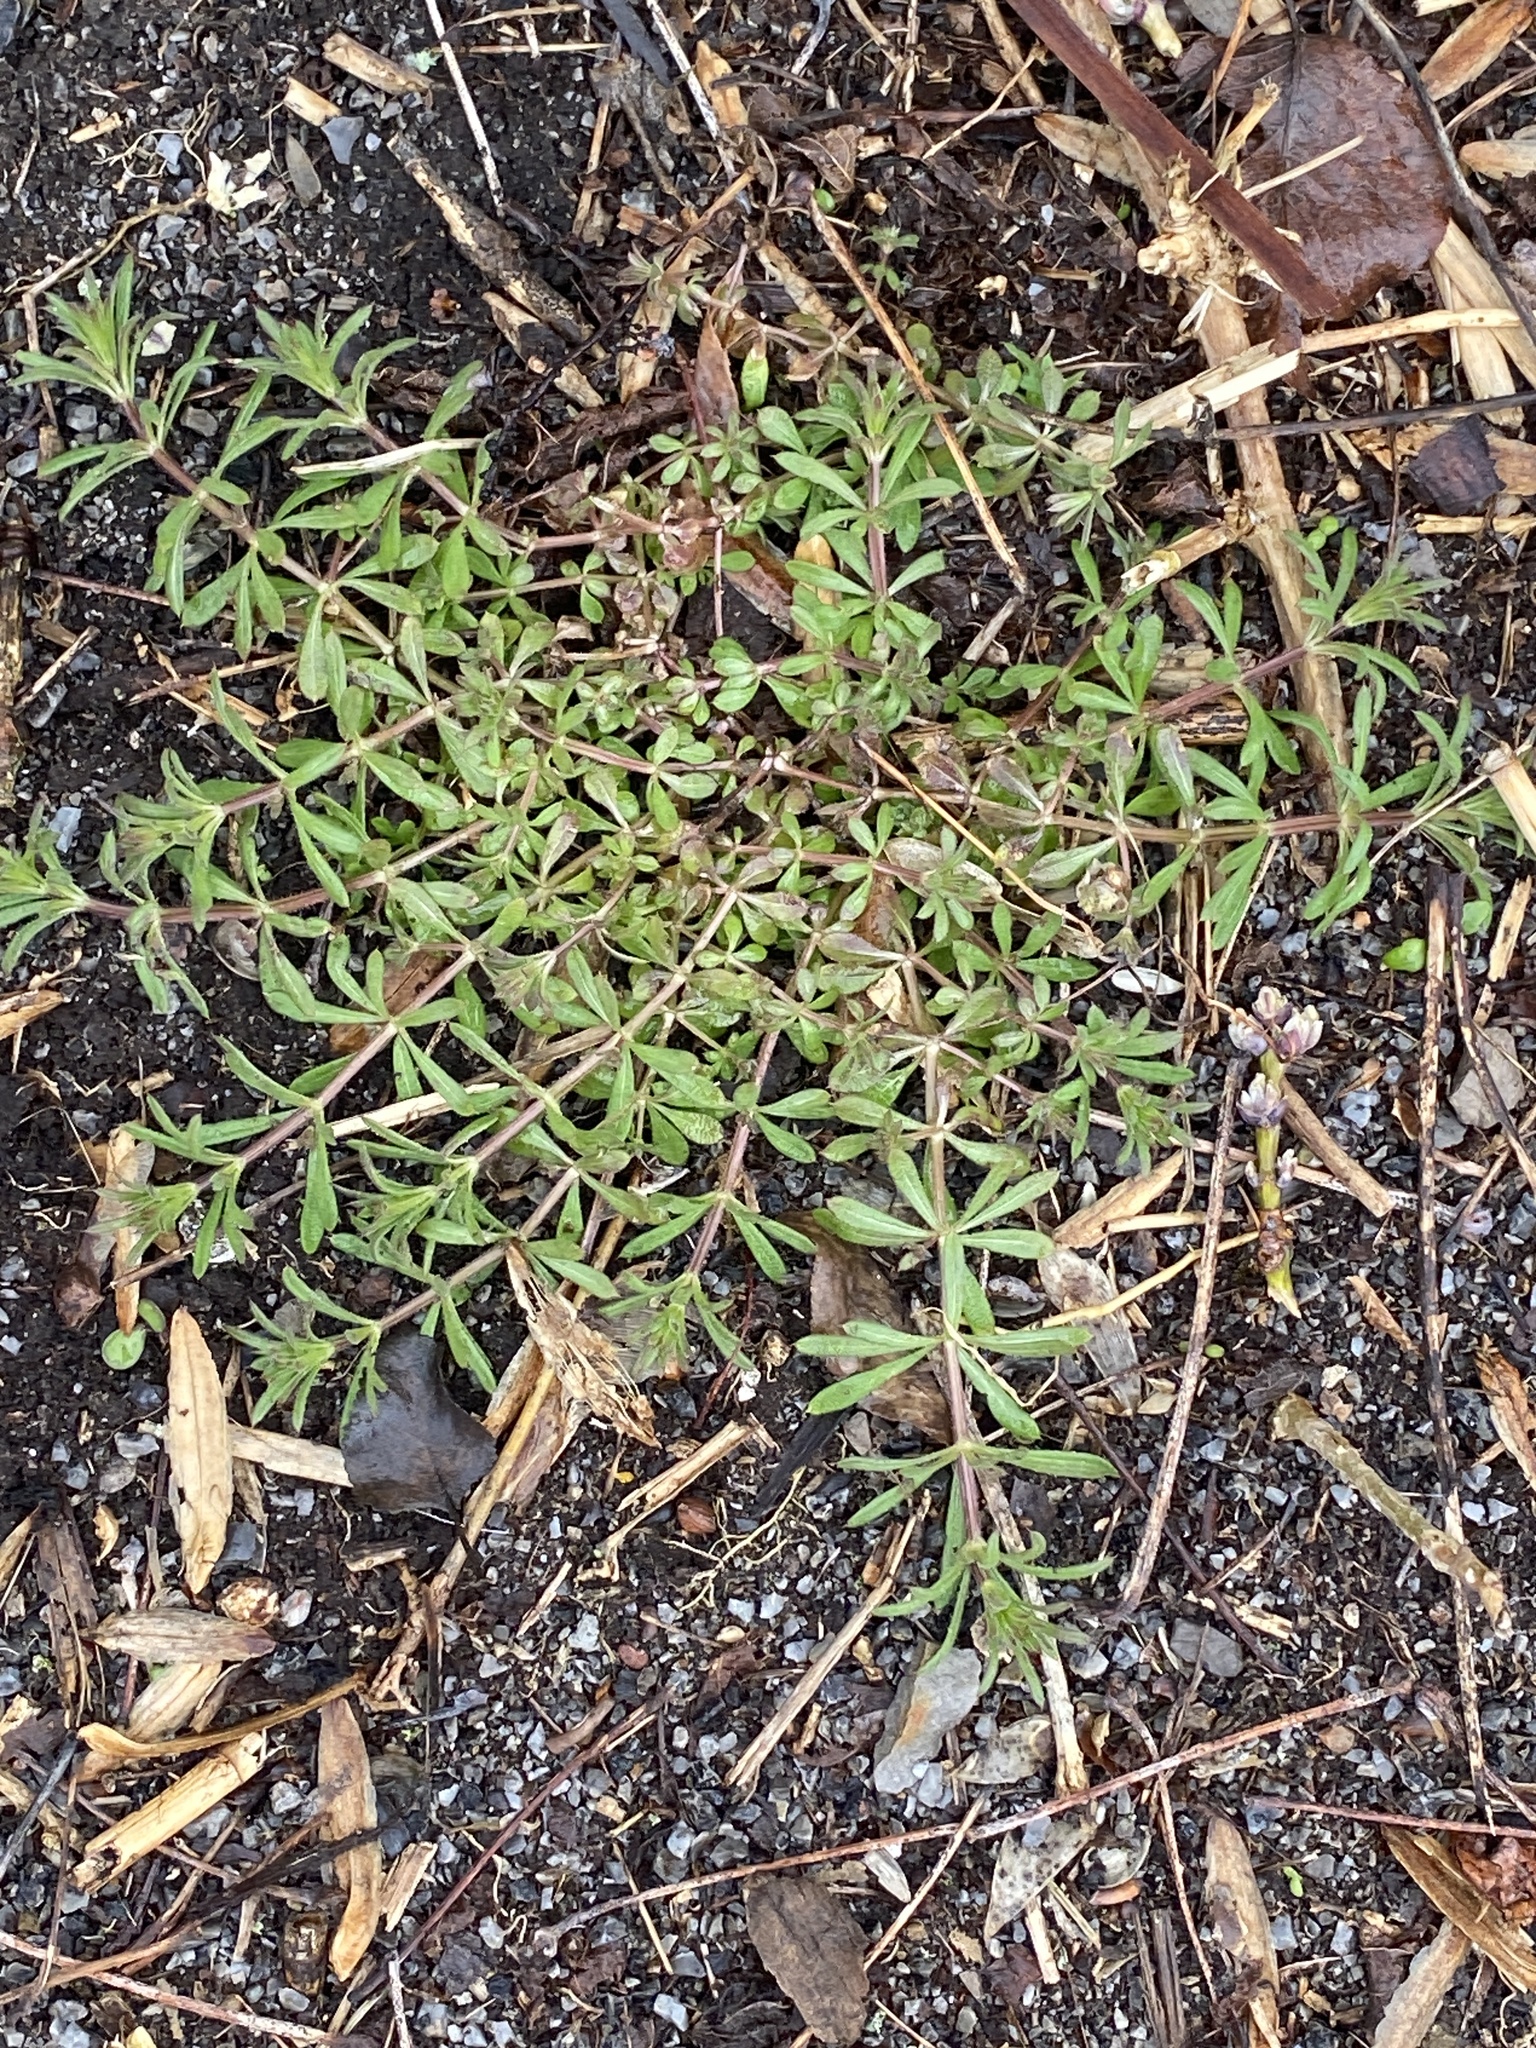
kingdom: Plantae
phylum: Tracheophyta
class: Magnoliopsida
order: Gentianales
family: Rubiaceae
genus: Galium
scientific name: Galium aparine
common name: Cleavers
